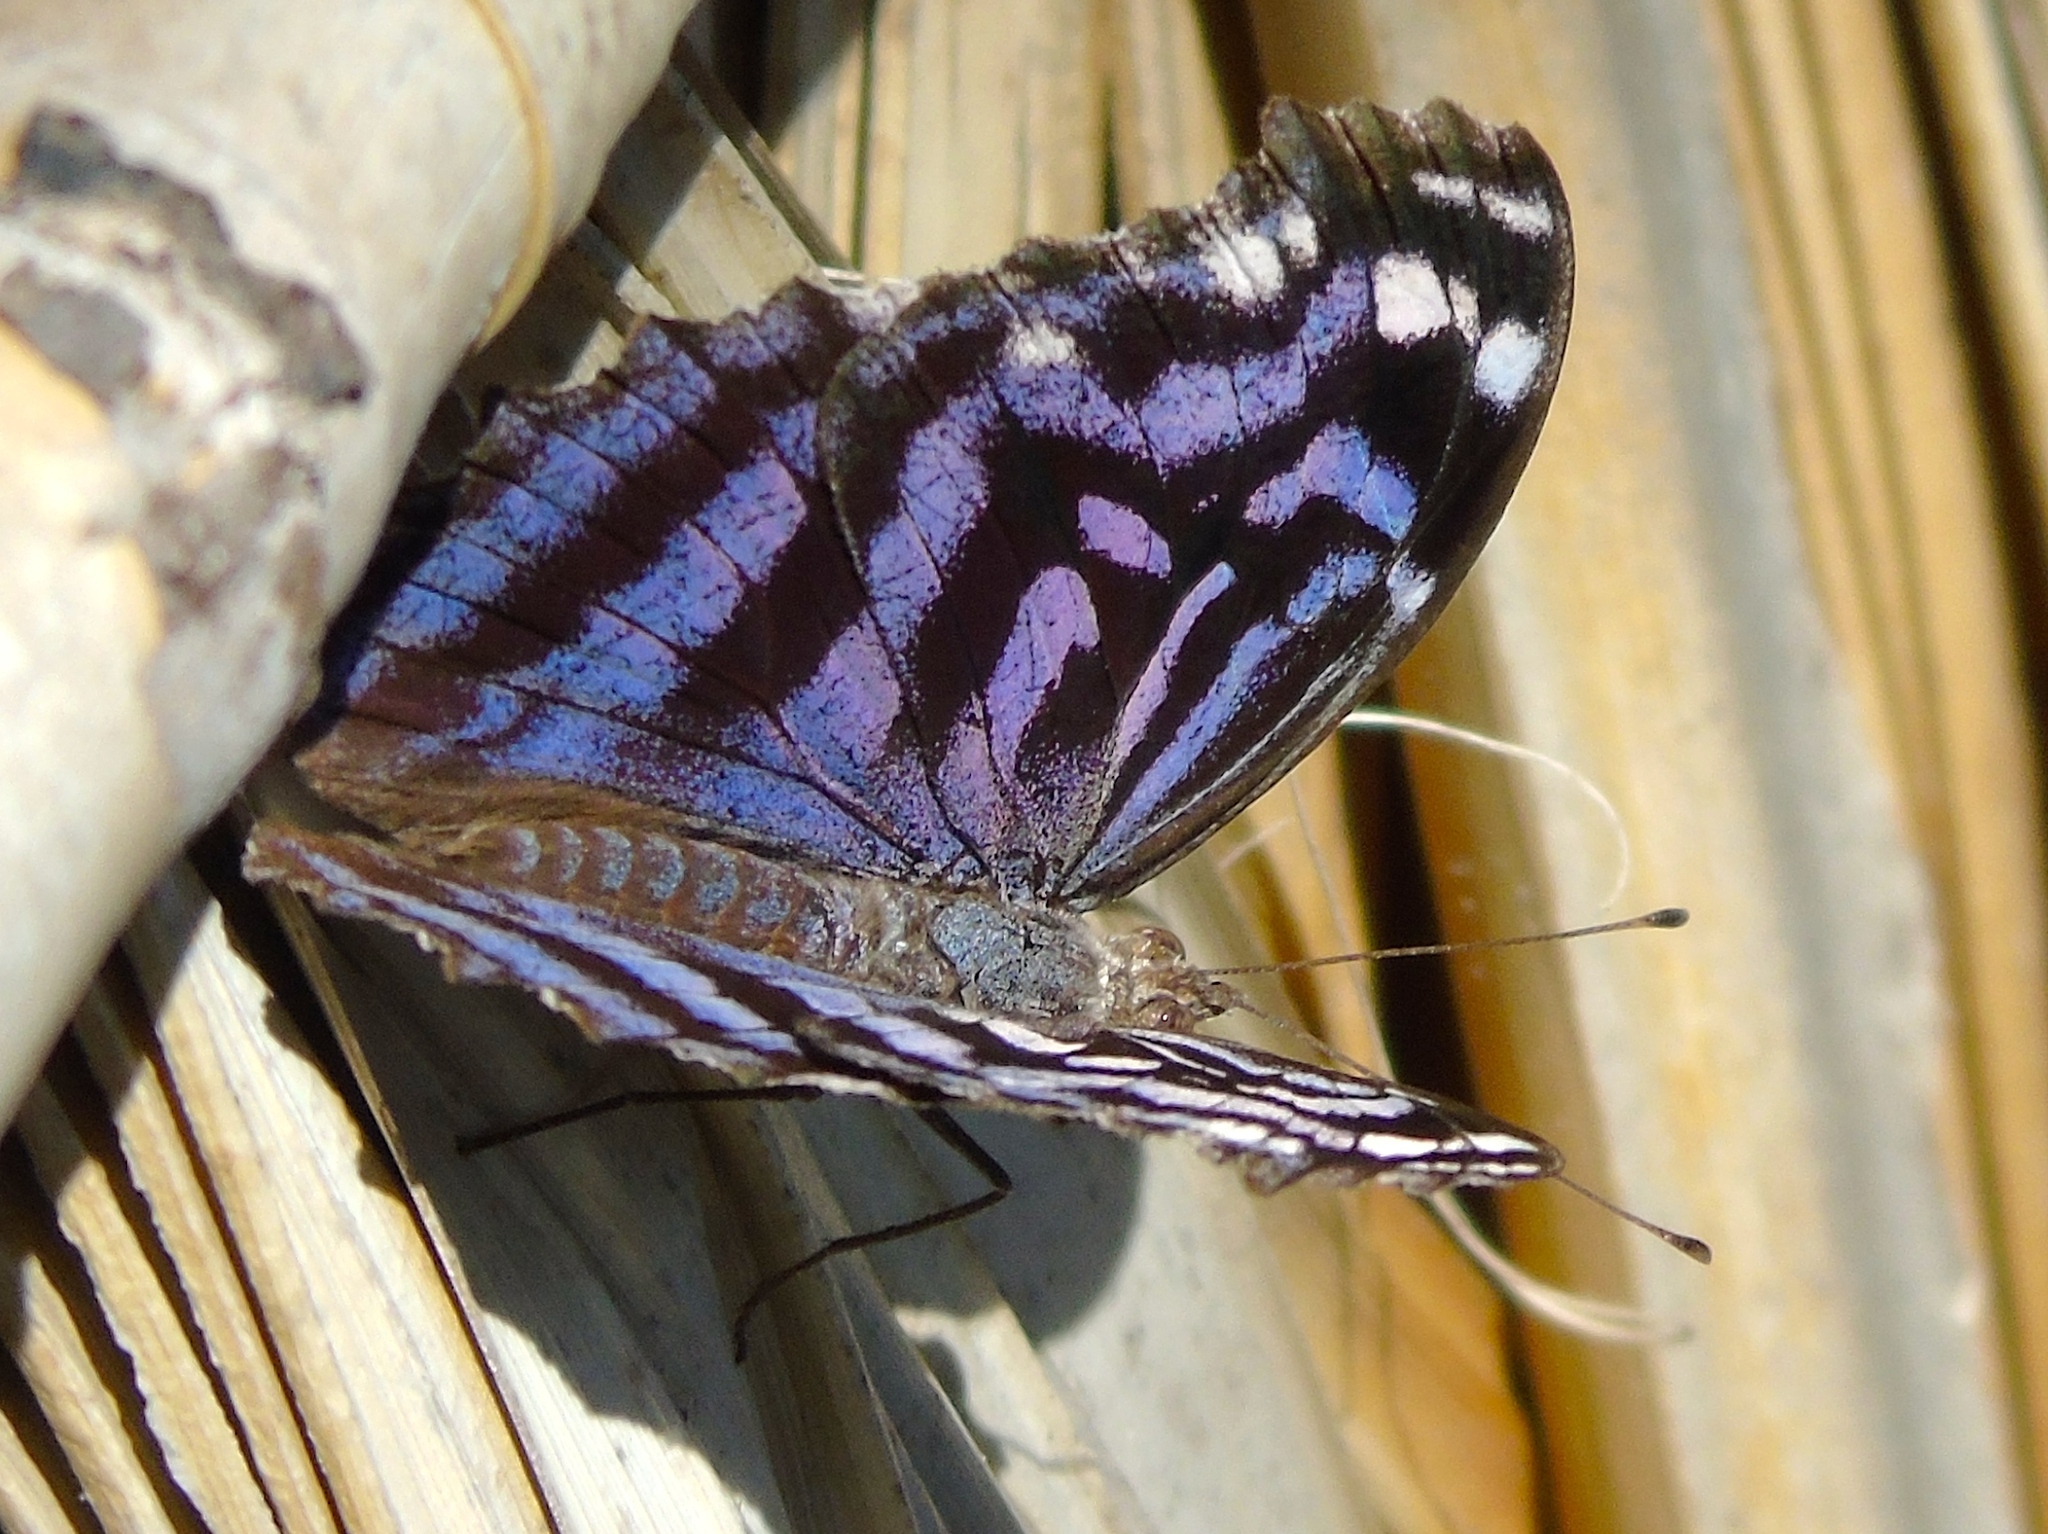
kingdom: Animalia
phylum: Arthropoda
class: Insecta
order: Lepidoptera
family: Nymphalidae
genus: Myscelia
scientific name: Myscelia ethusa
